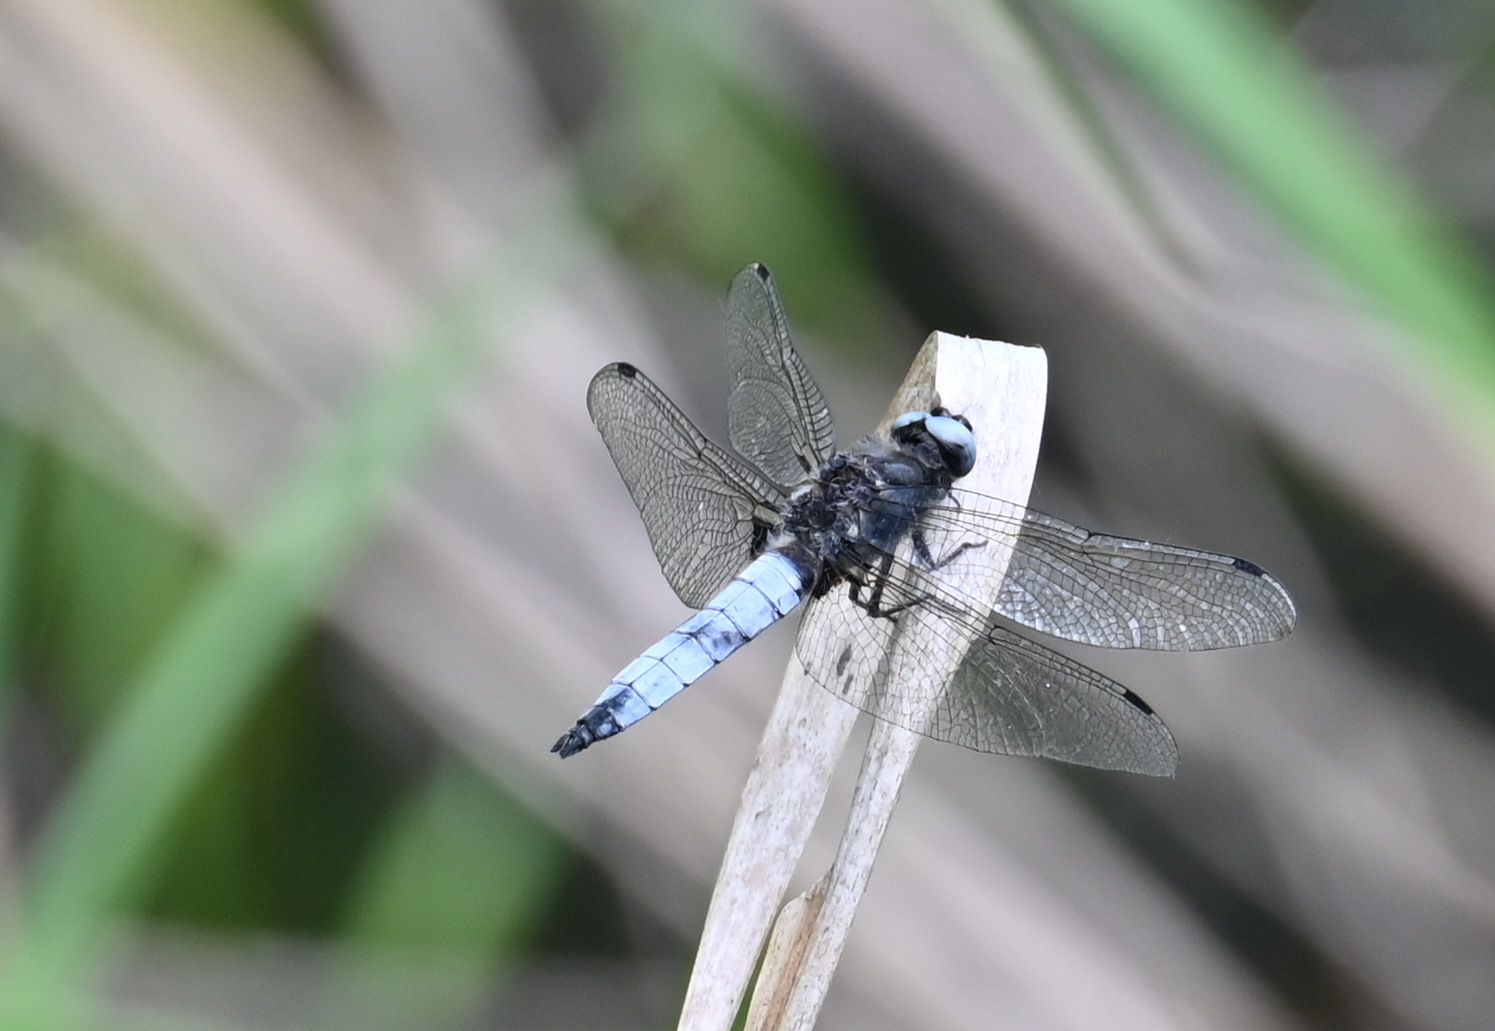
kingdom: Animalia
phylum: Arthropoda
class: Insecta
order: Odonata
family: Libellulidae
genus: Libellula
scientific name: Libellula fulva
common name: Blue chaser
